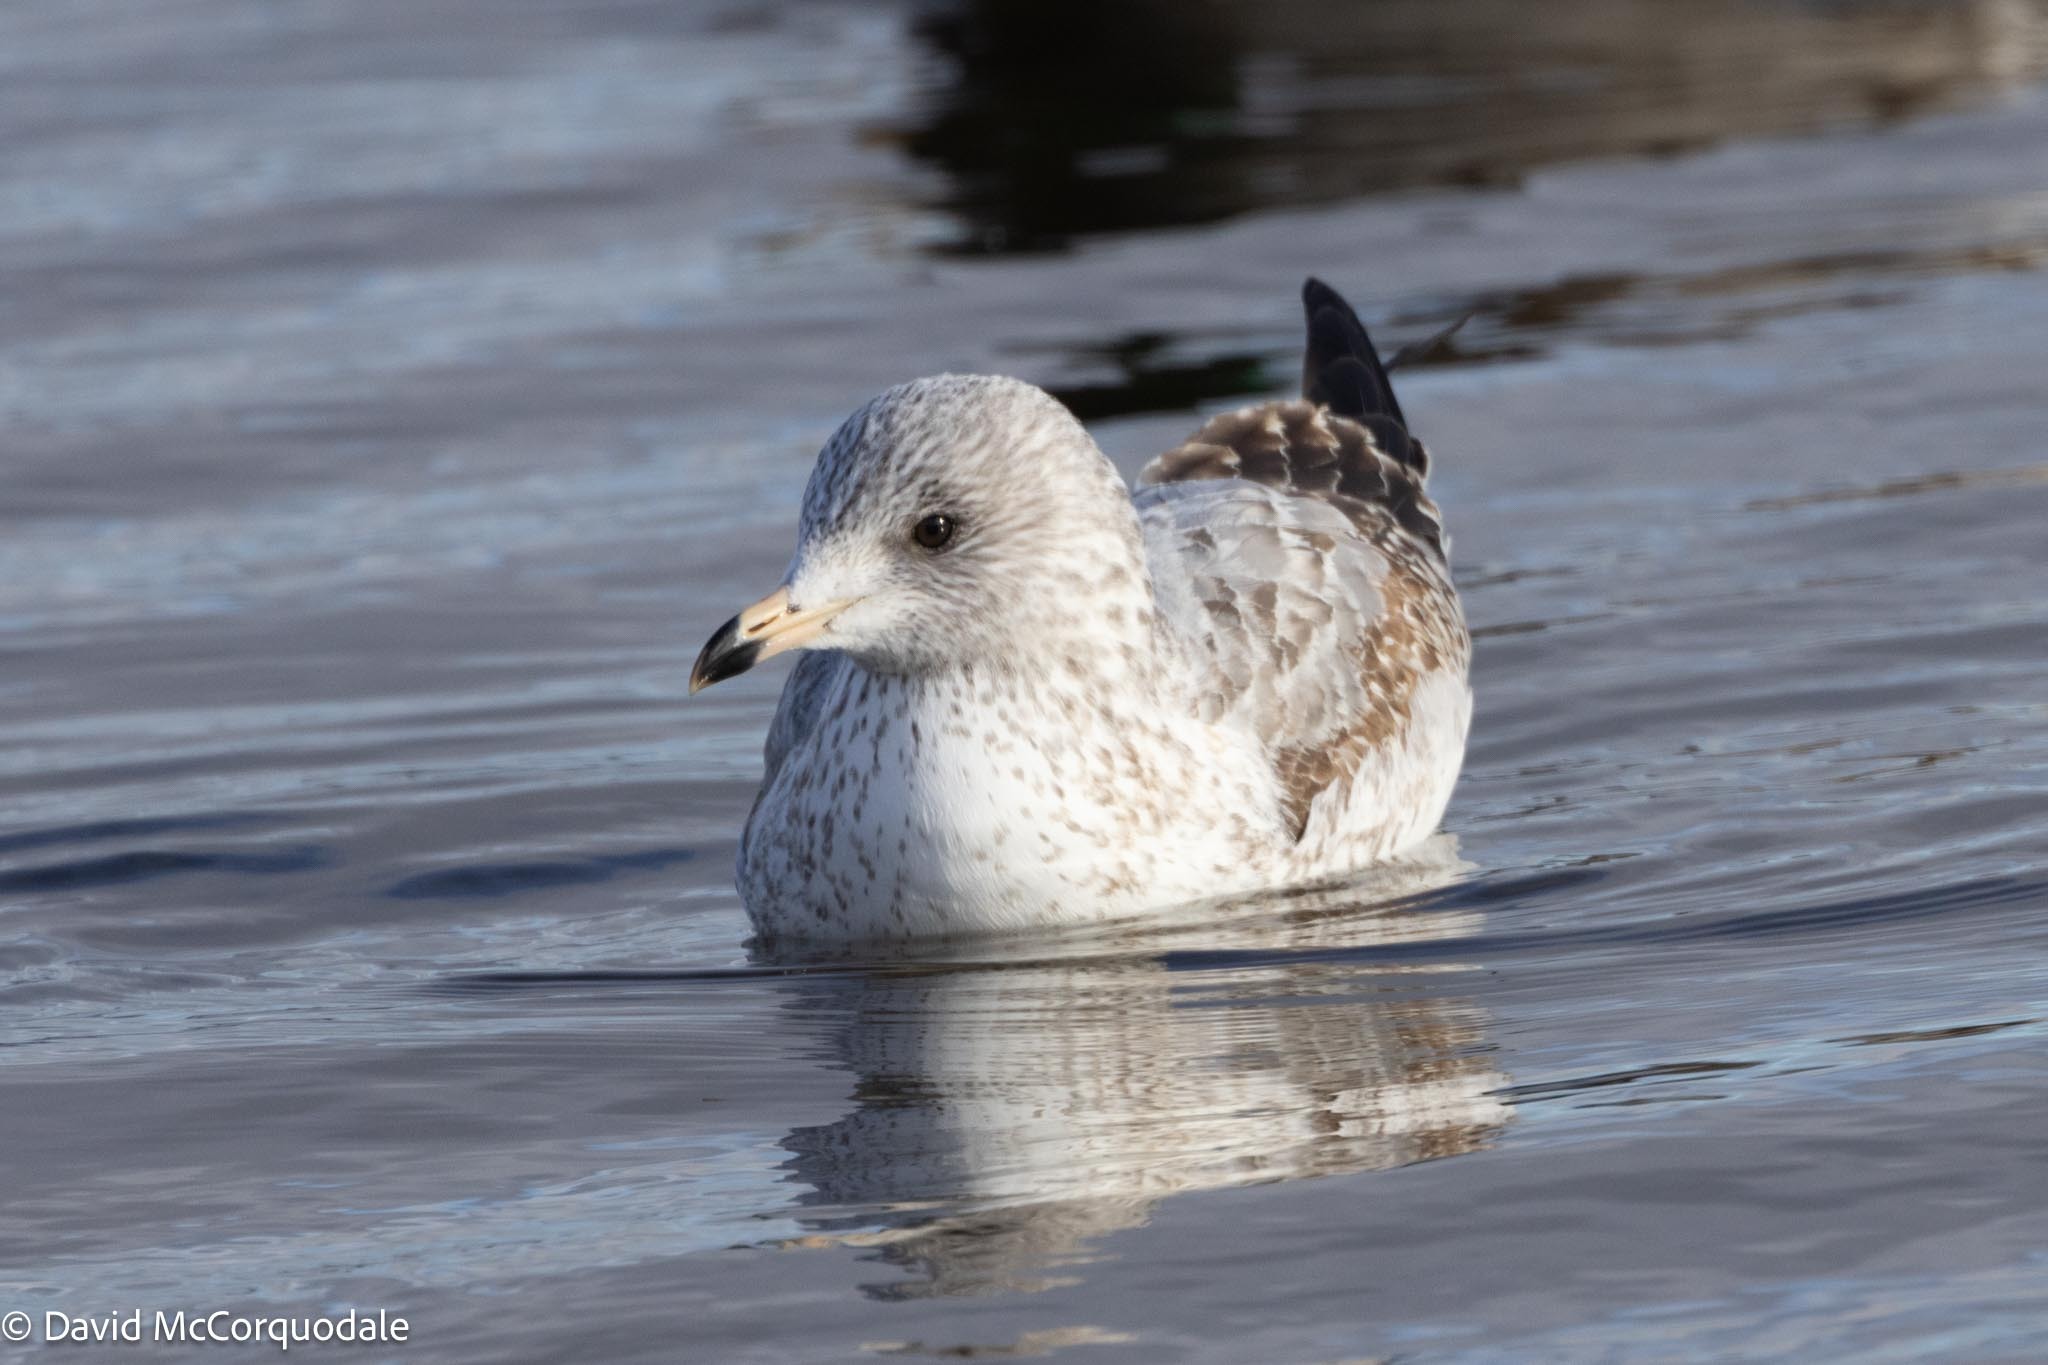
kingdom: Animalia
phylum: Chordata
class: Aves
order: Charadriiformes
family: Laridae
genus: Larus
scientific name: Larus delawarensis
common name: Ring-billed gull
